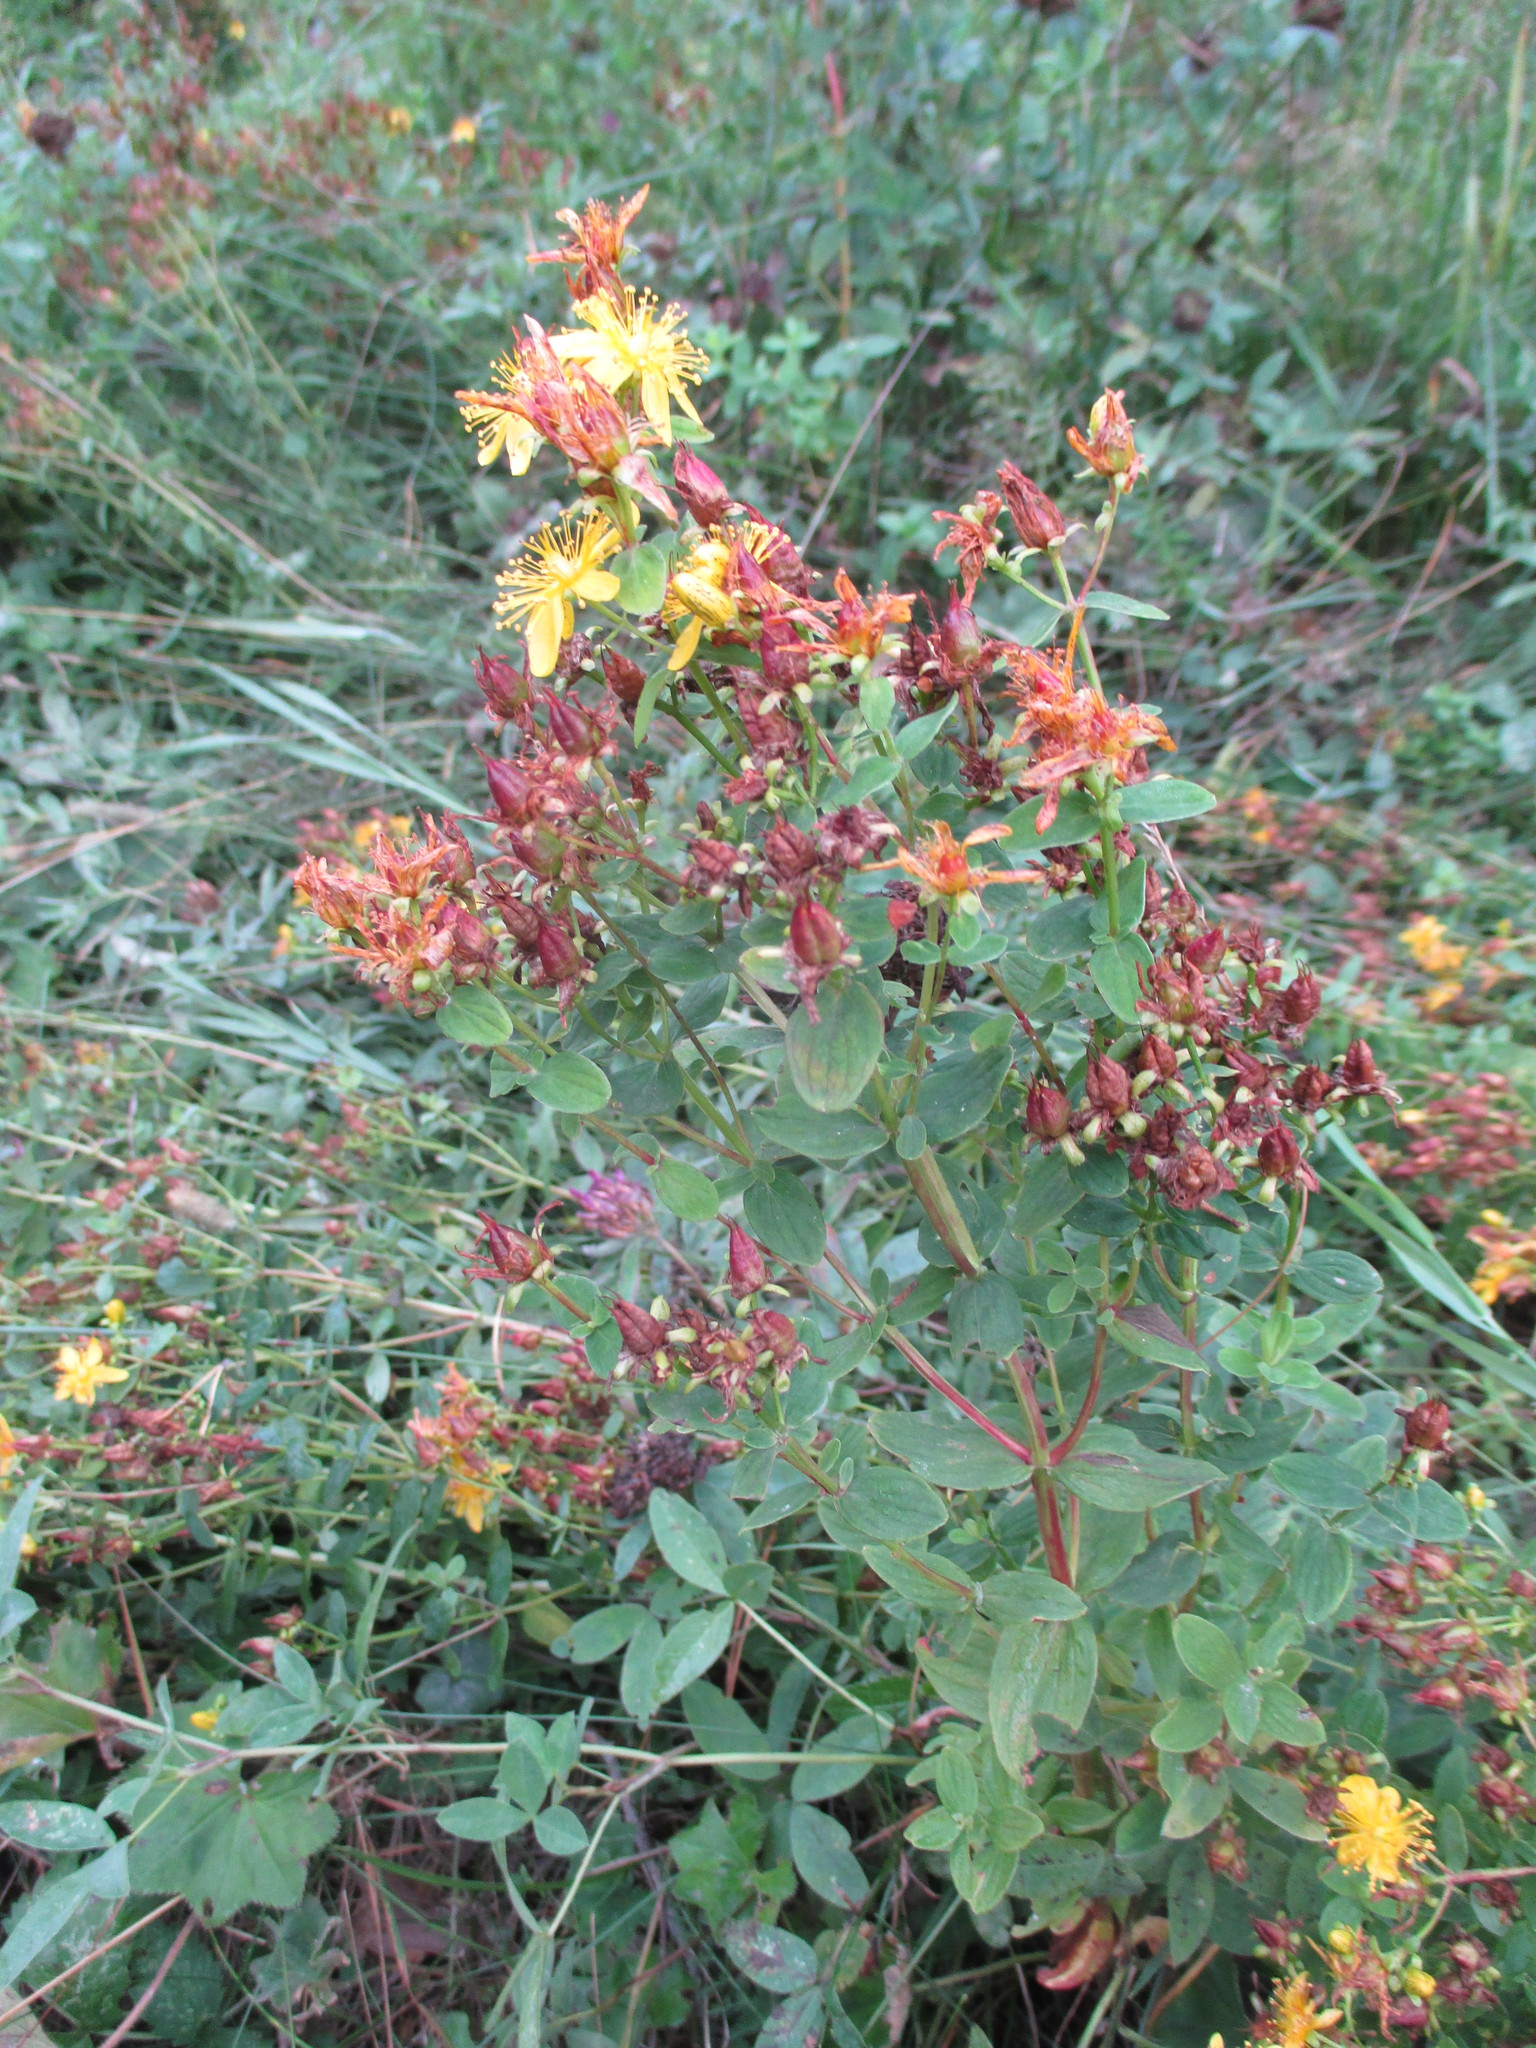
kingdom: Plantae
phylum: Tracheophyta
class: Magnoliopsida
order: Malpighiales
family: Hypericaceae
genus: Hypericum
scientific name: Hypericum maculatum
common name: Imperforate st. john's-wort
